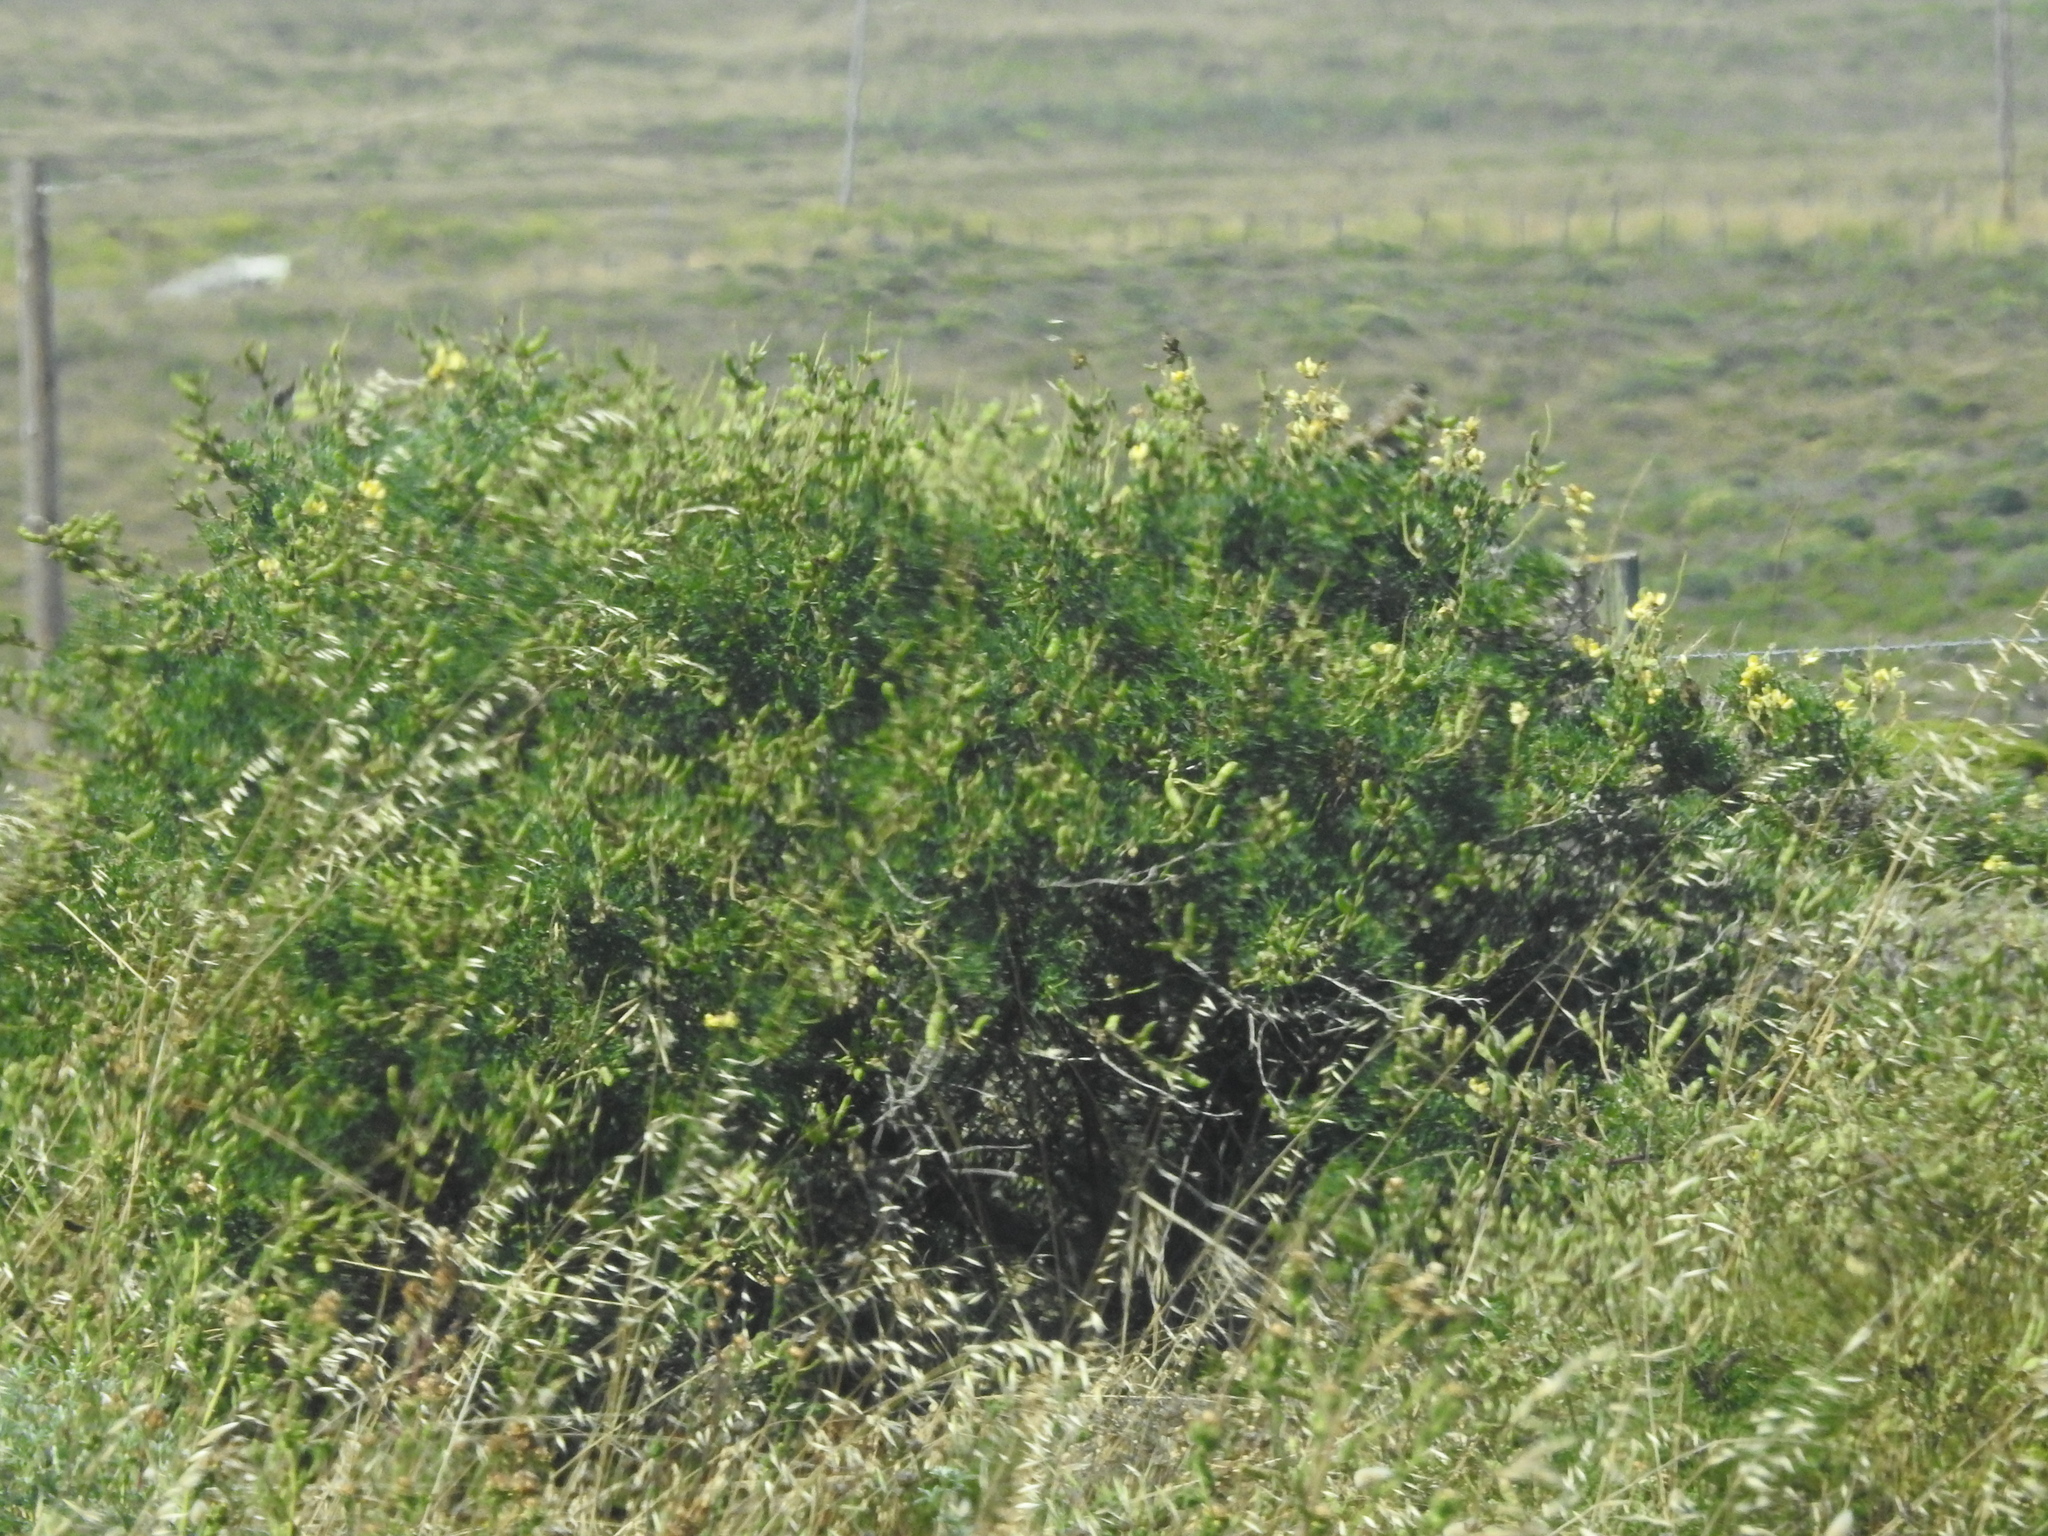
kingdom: Plantae
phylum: Tracheophyta
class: Magnoliopsida
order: Fabales
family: Fabaceae
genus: Lupinus
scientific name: Lupinus arboreus
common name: Yellow bush lupine
